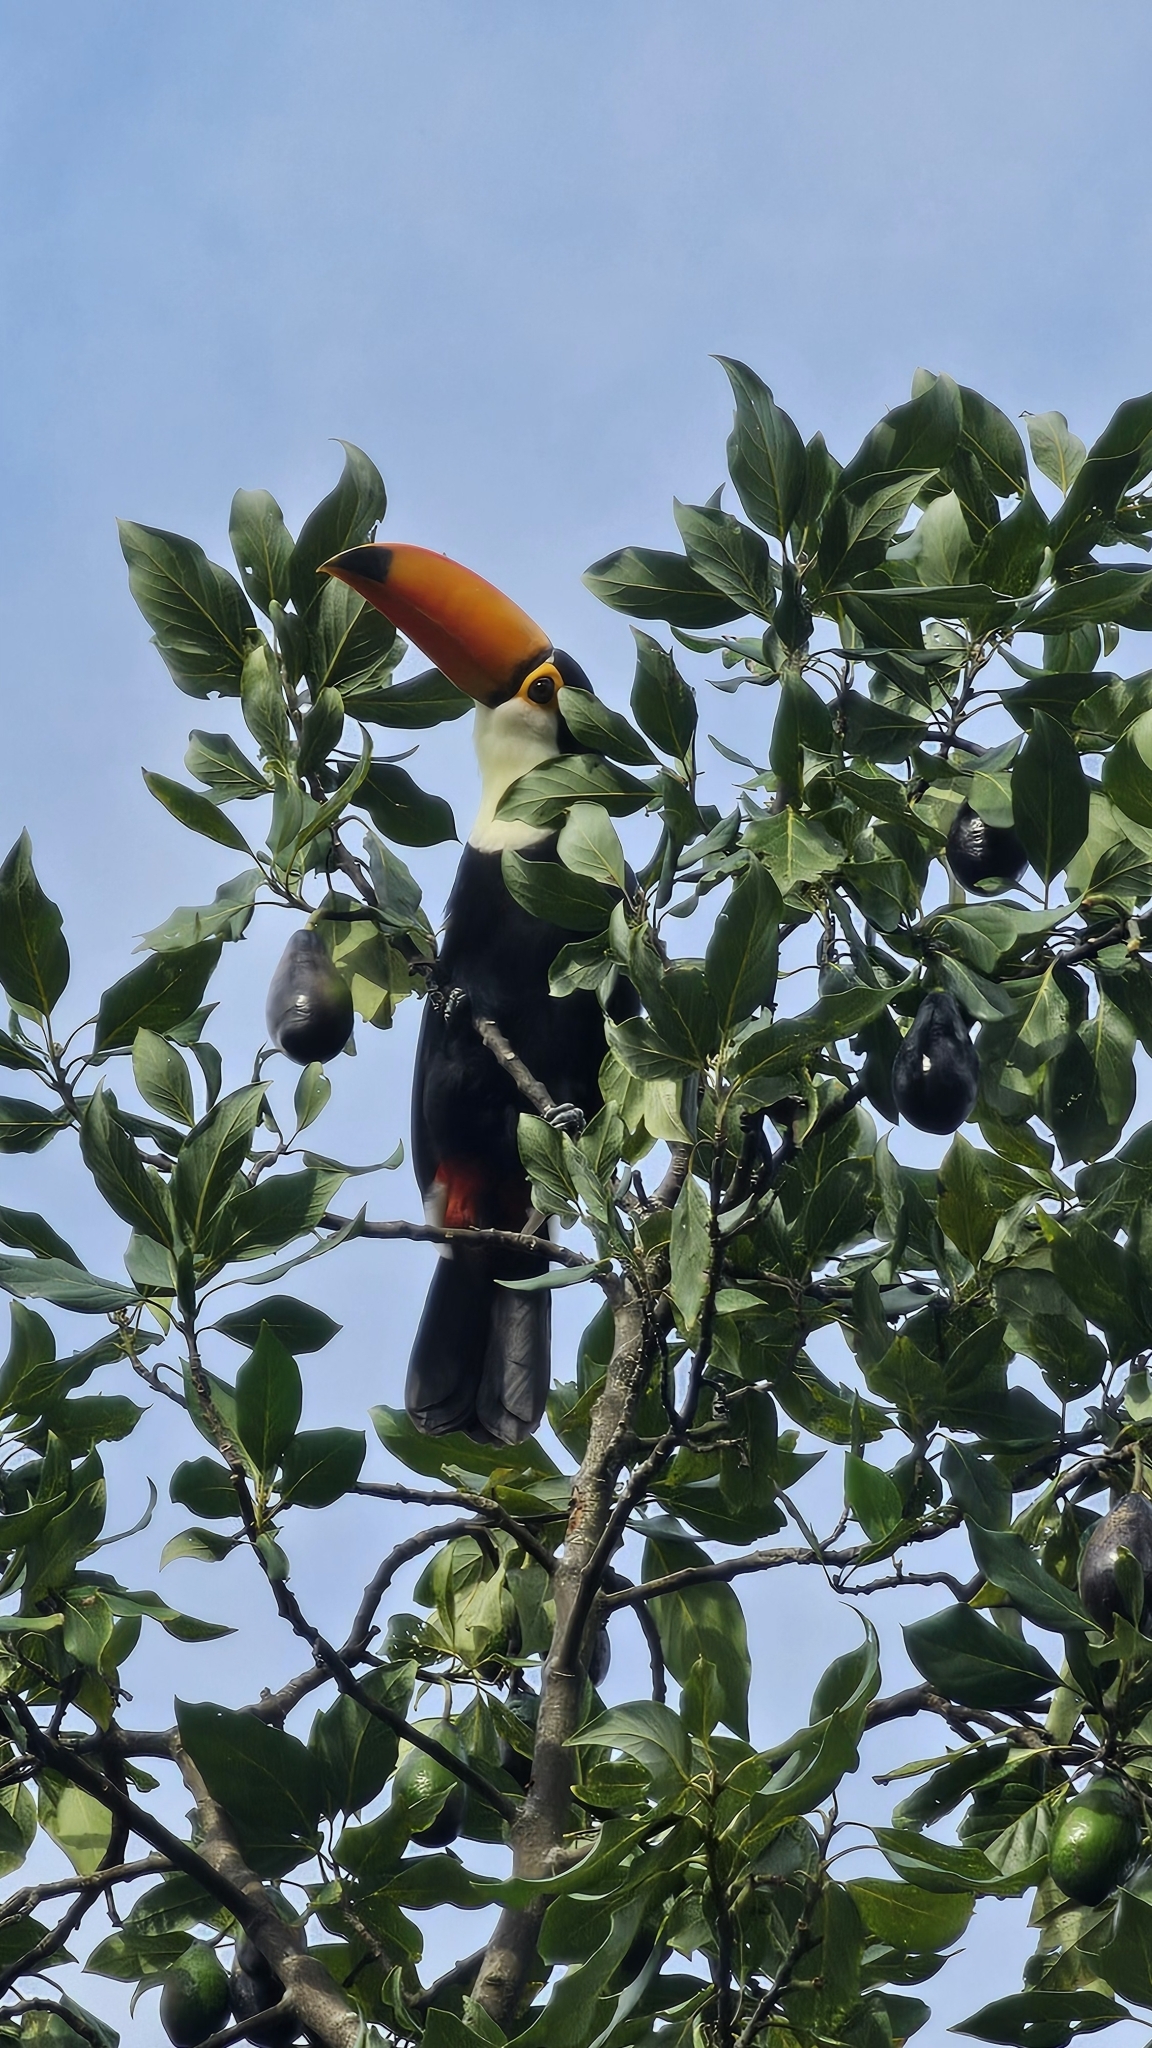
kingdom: Animalia
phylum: Chordata
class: Aves
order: Piciformes
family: Ramphastidae
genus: Ramphastos
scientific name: Ramphastos toco
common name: Toco toucan
